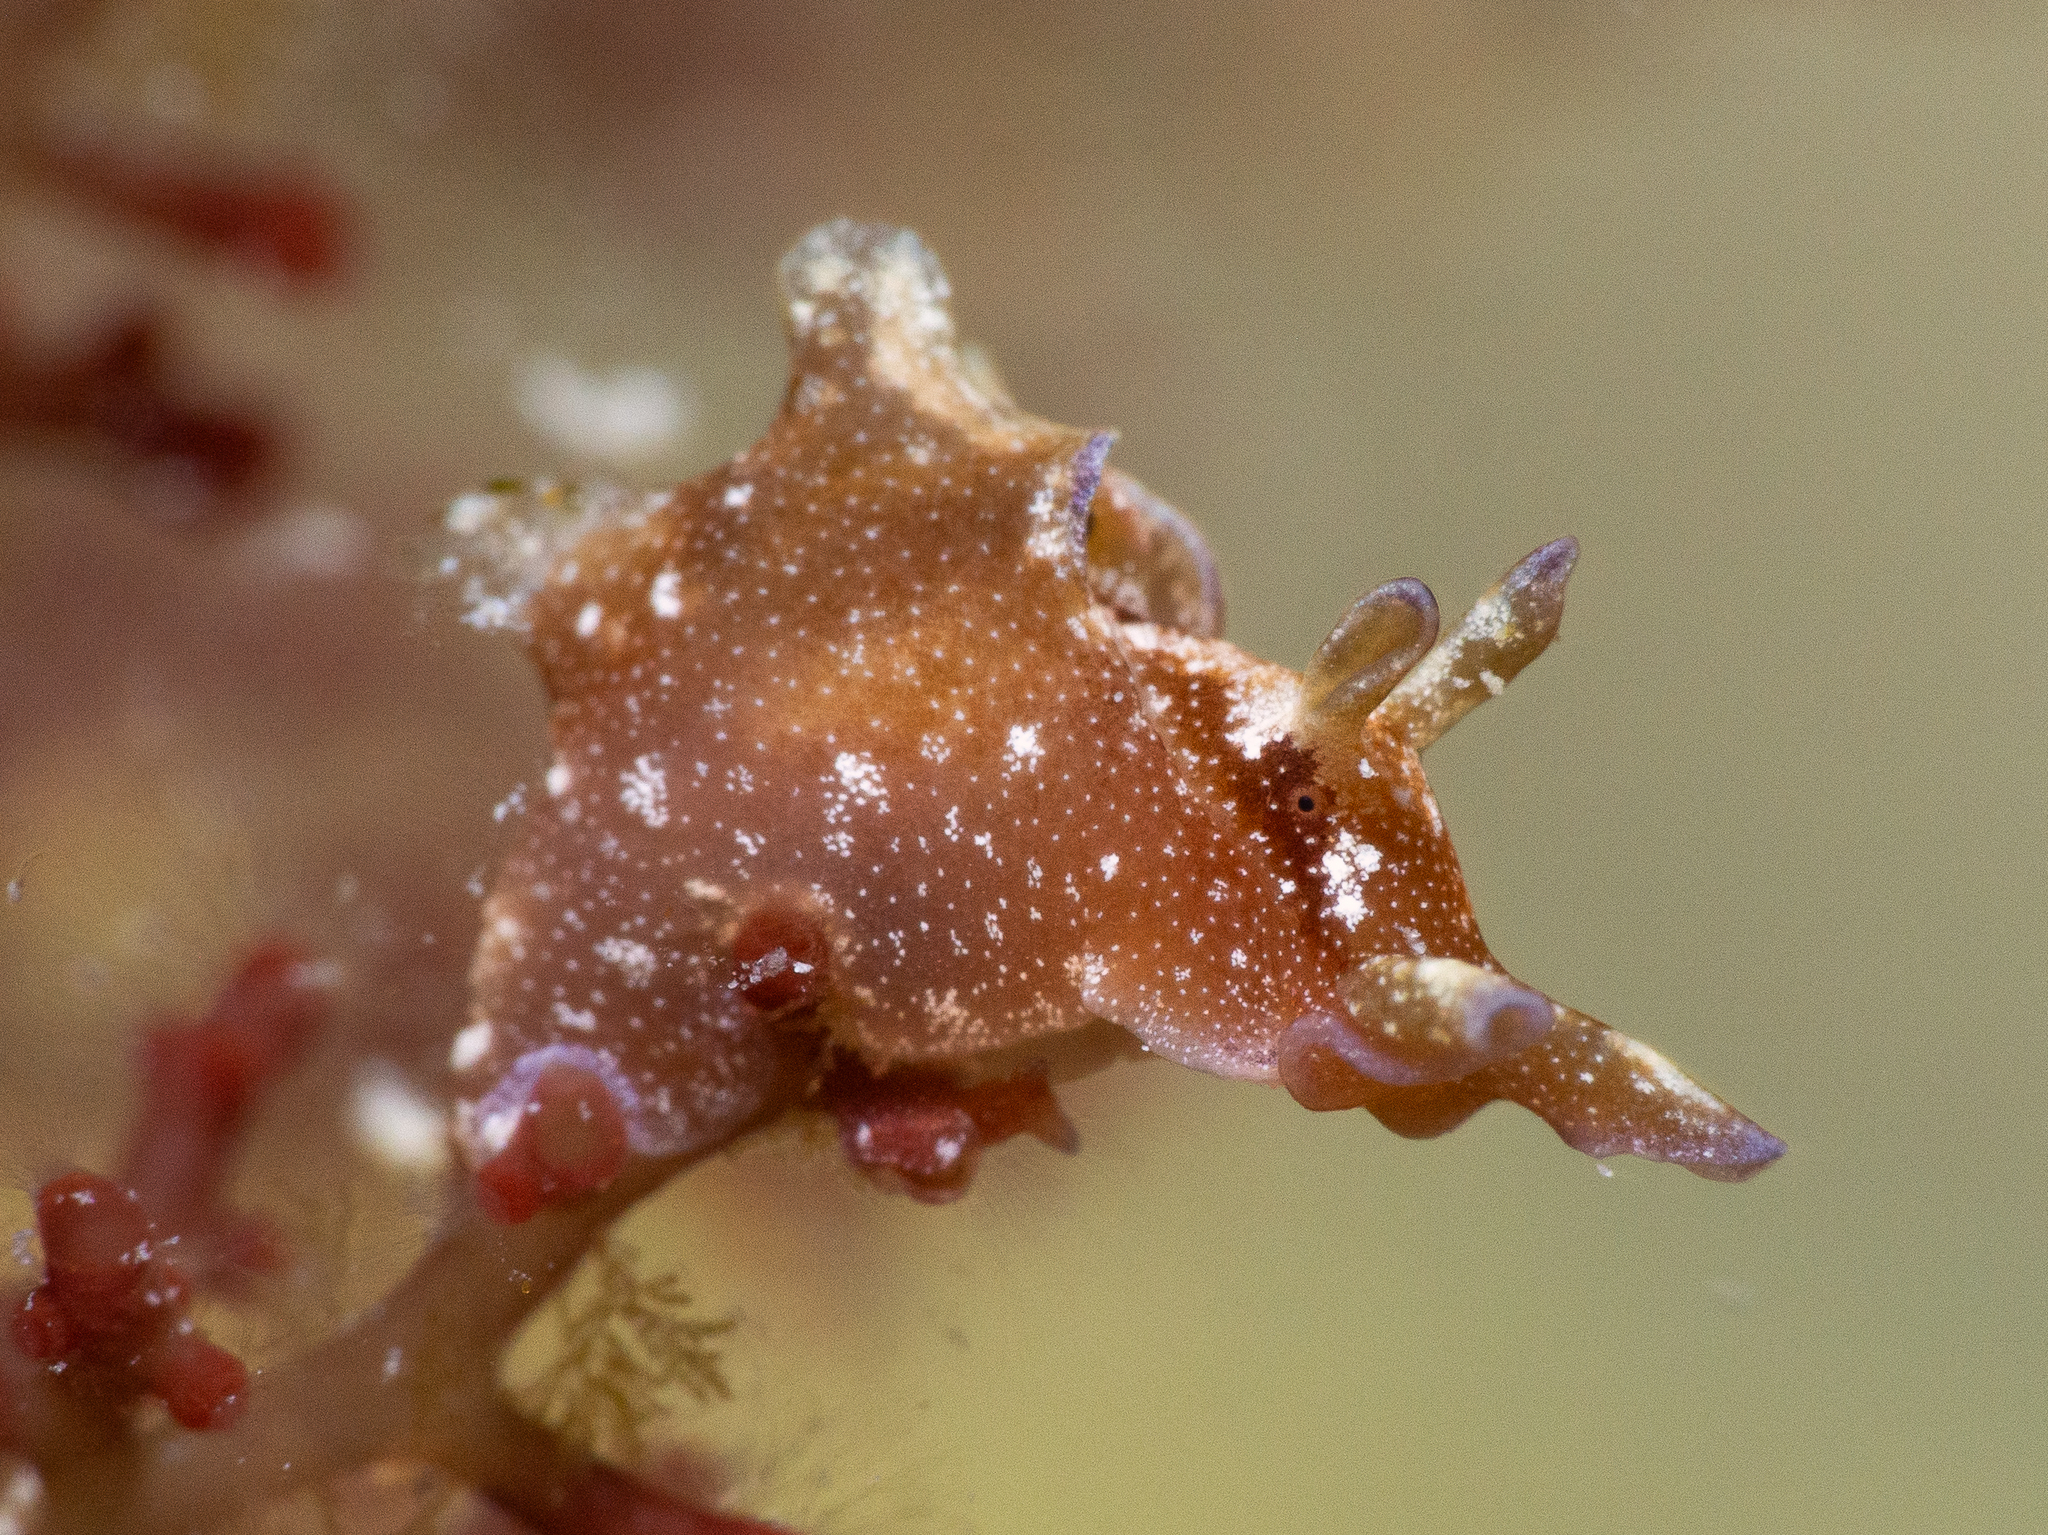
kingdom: Animalia
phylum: Mollusca
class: Gastropoda
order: Aplysiida
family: Aplysiidae
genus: Aplysia
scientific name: Aplysia parvula
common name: Dwarf sea hare
